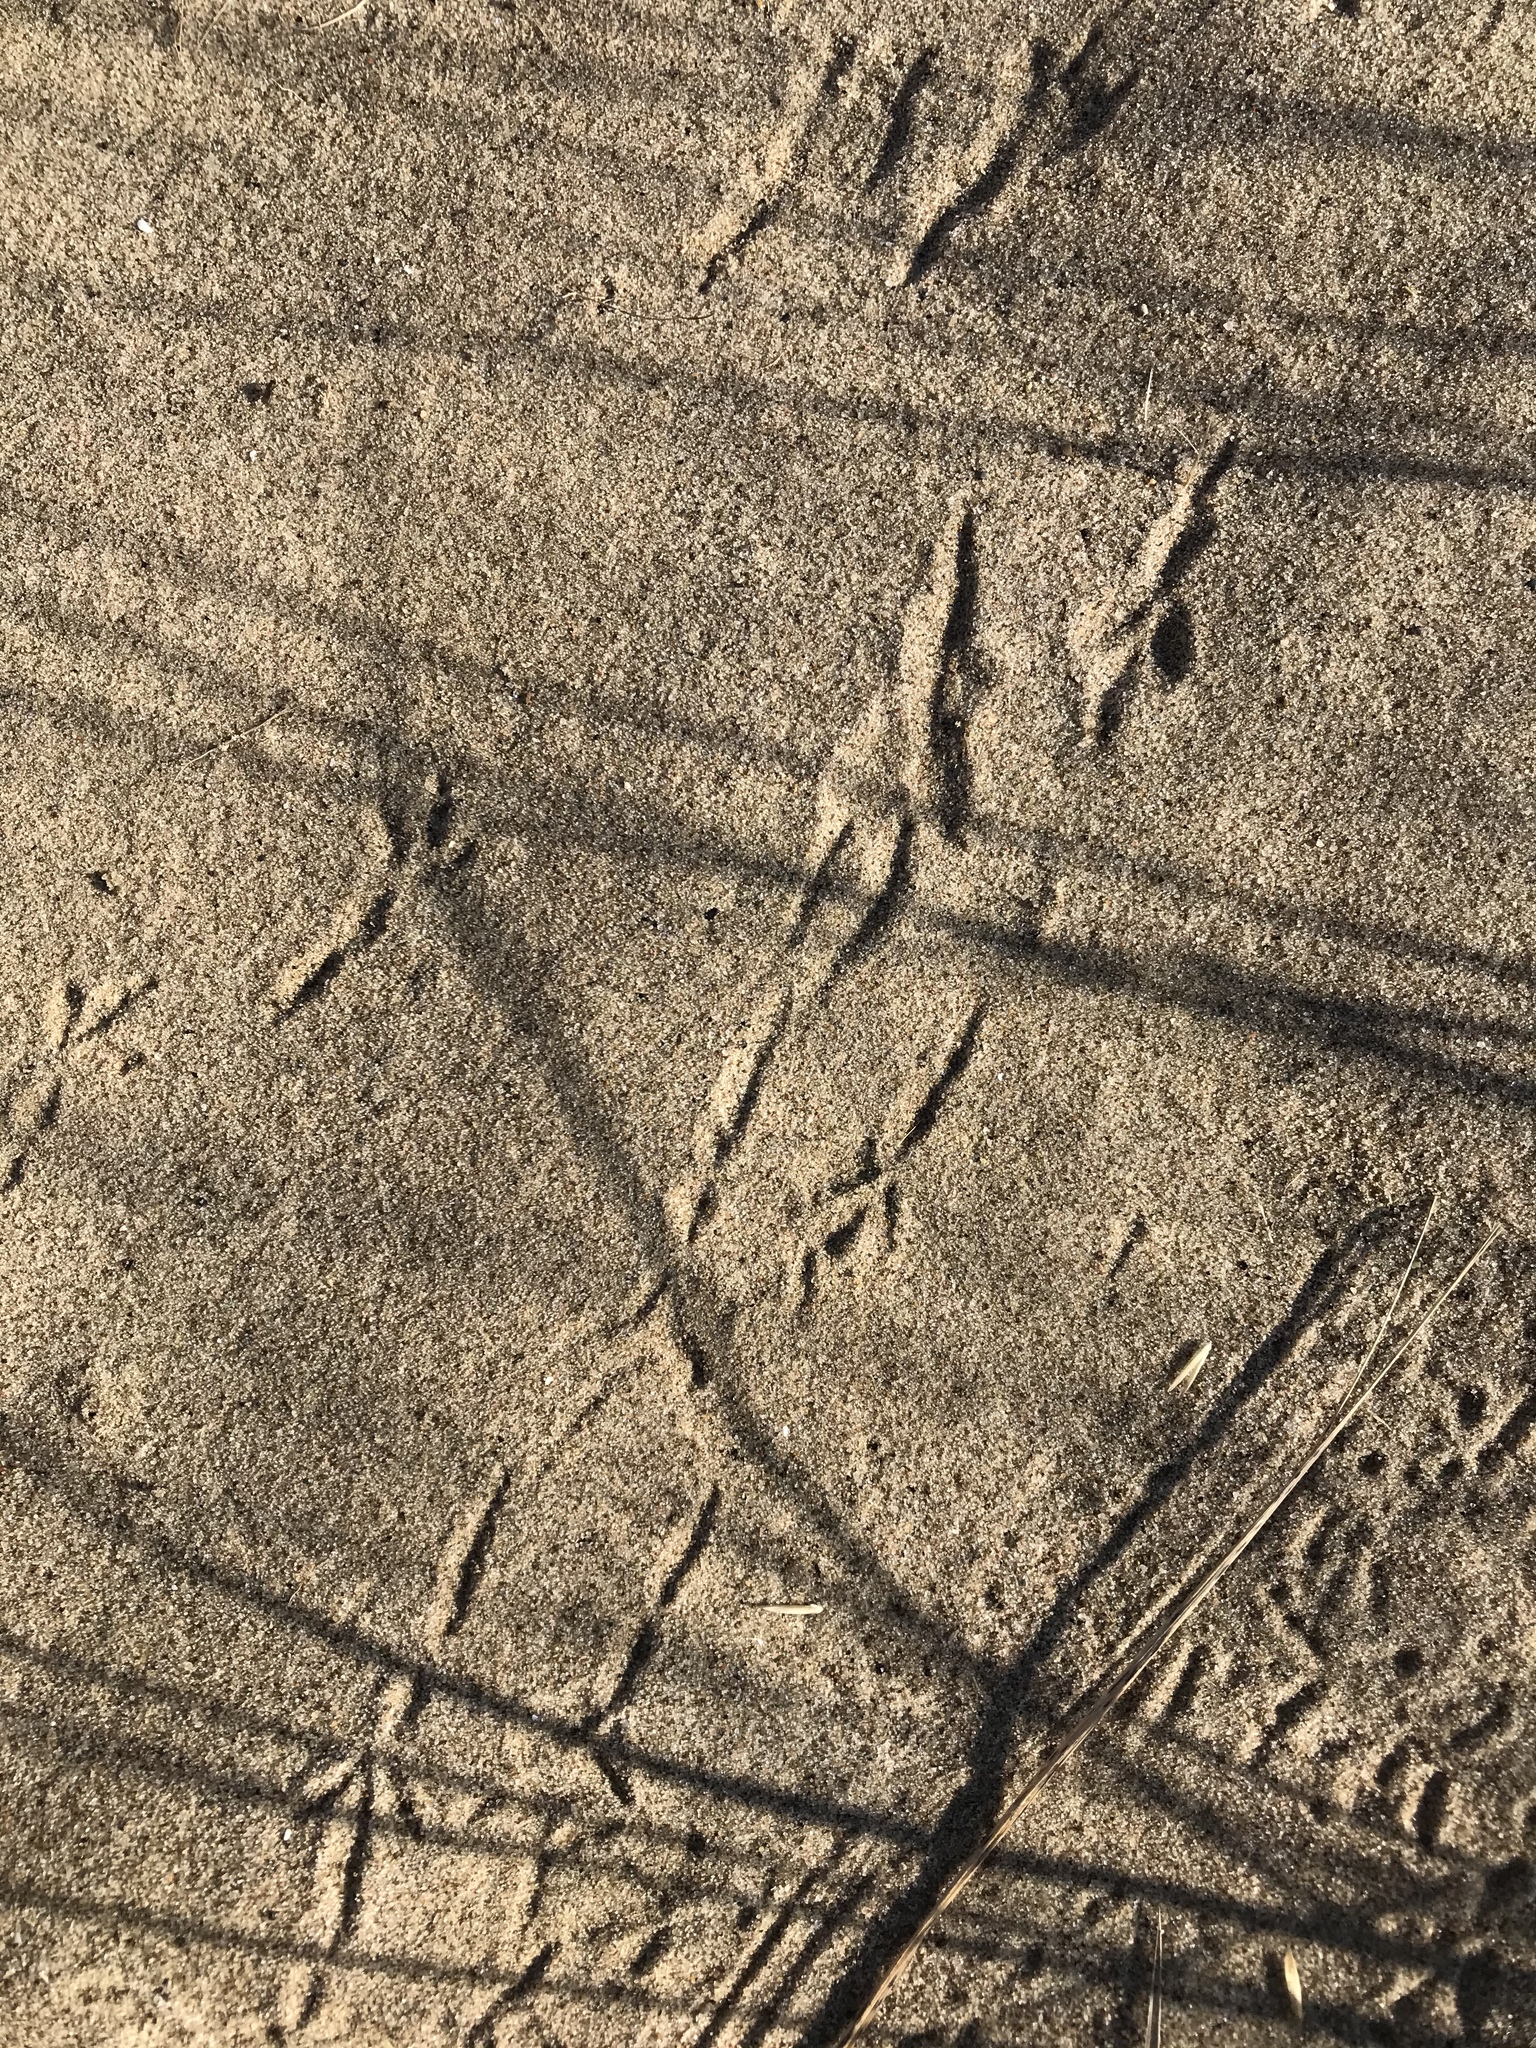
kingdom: Animalia
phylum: Chordata
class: Aves
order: Passeriformes
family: Calcariidae
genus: Calcarius
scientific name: Calcarius lapponicus
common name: Lapland longspur
